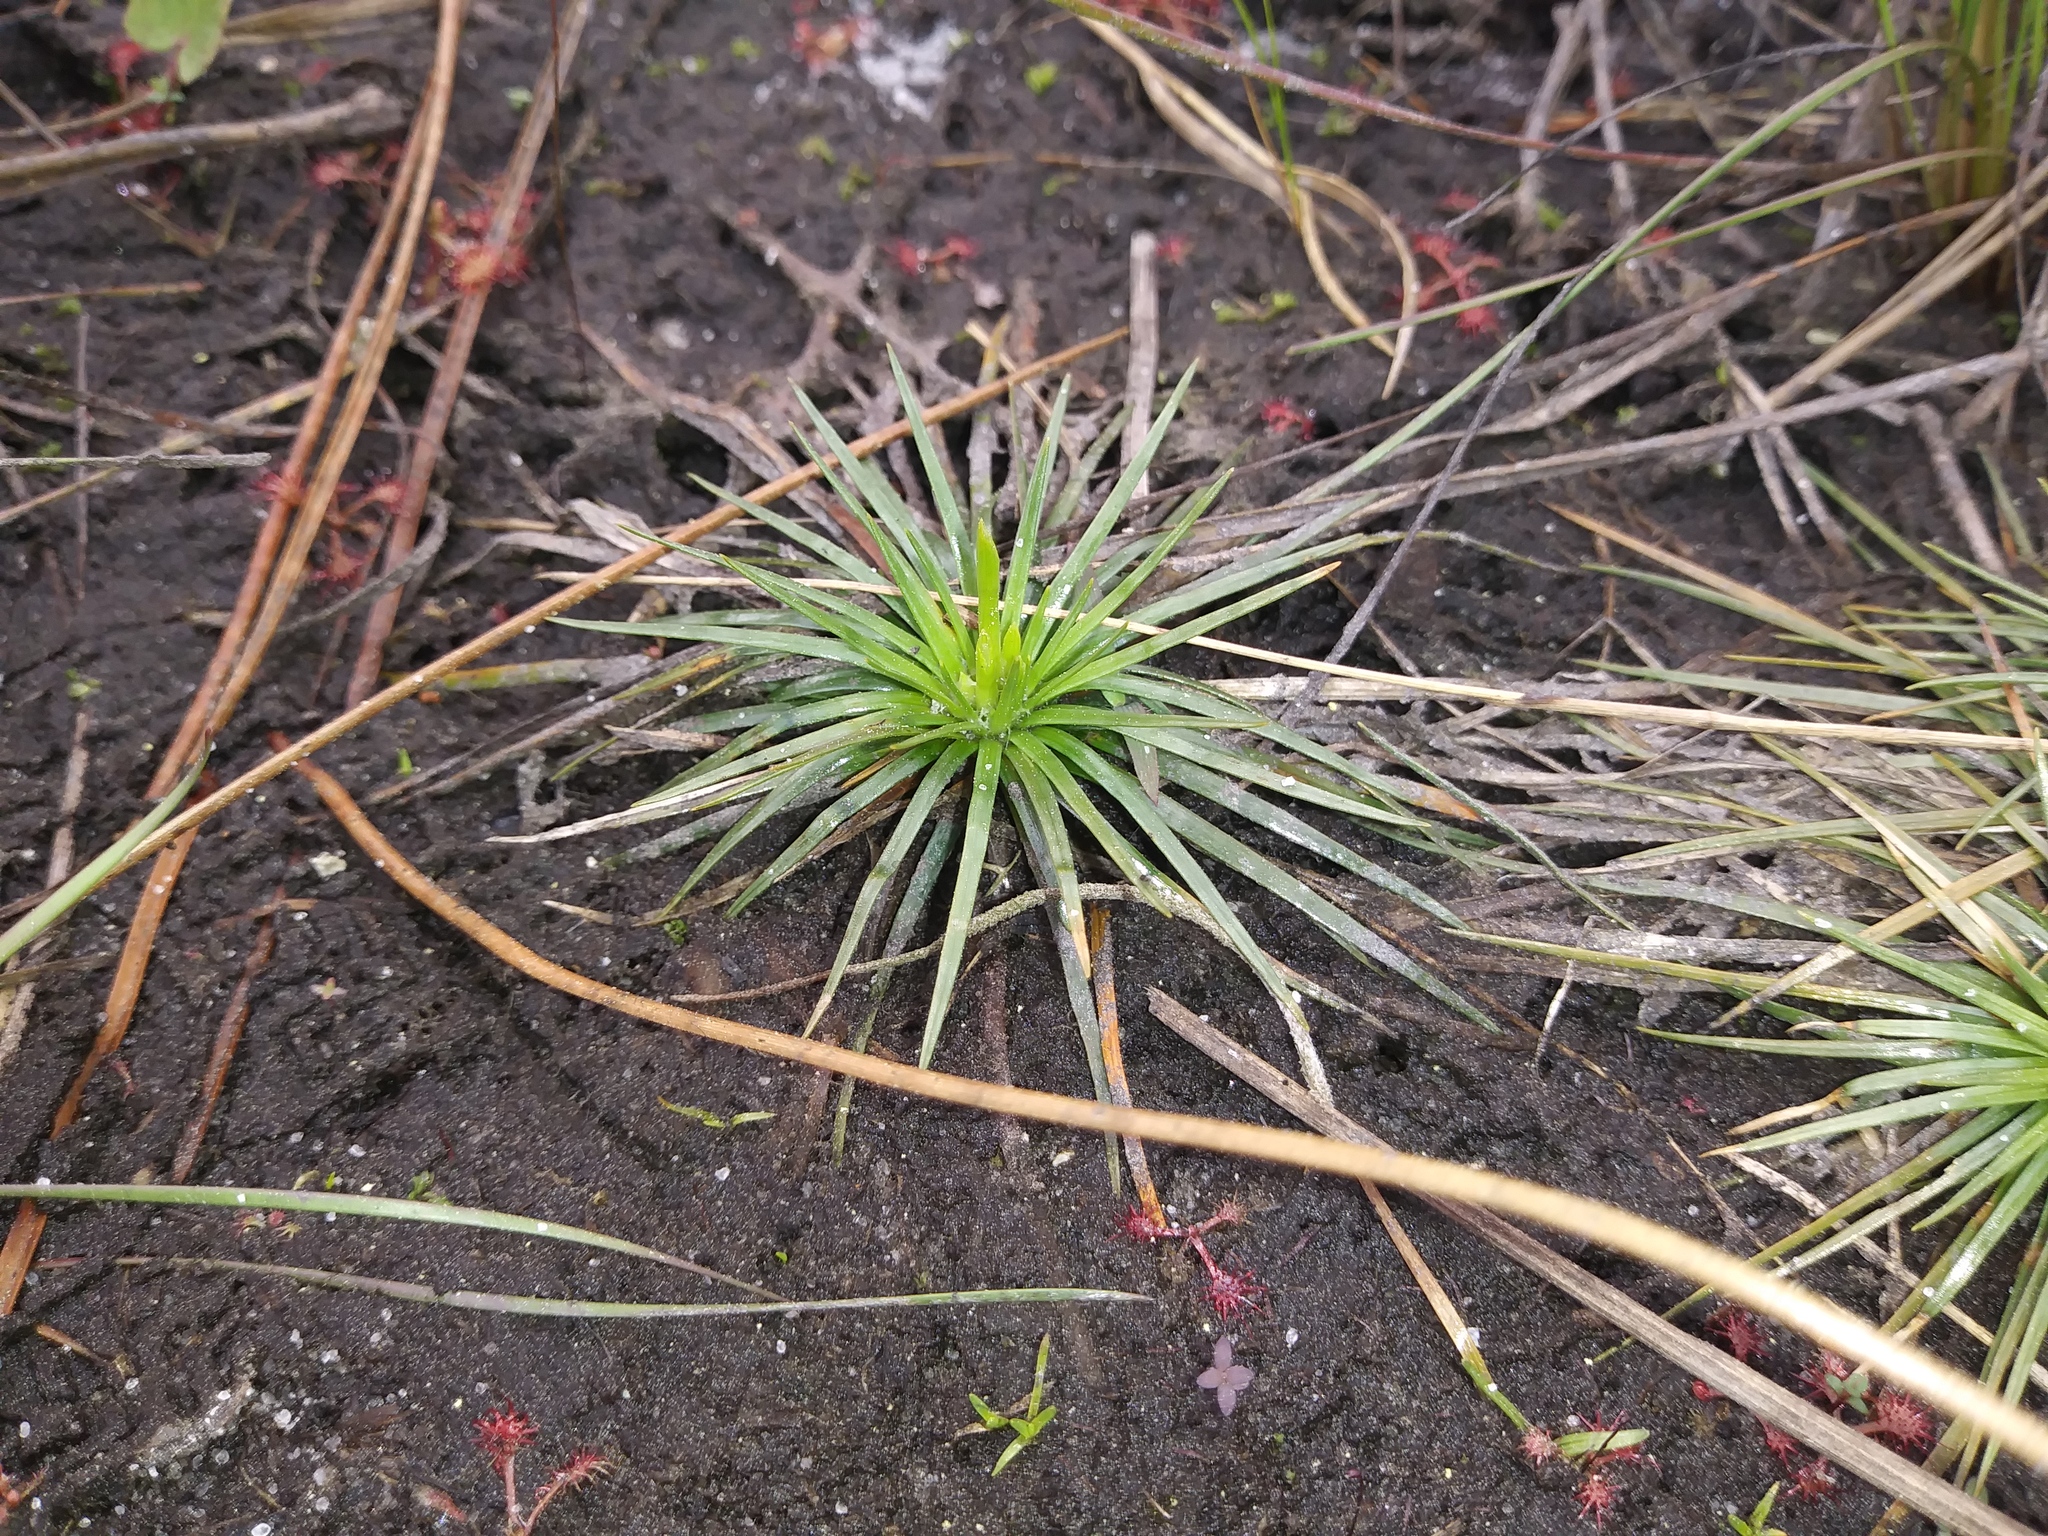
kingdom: Plantae
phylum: Tracheophyta
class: Liliopsida
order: Poales
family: Eriocaulaceae
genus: Syngonanthus
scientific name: Syngonanthus flavidulus
